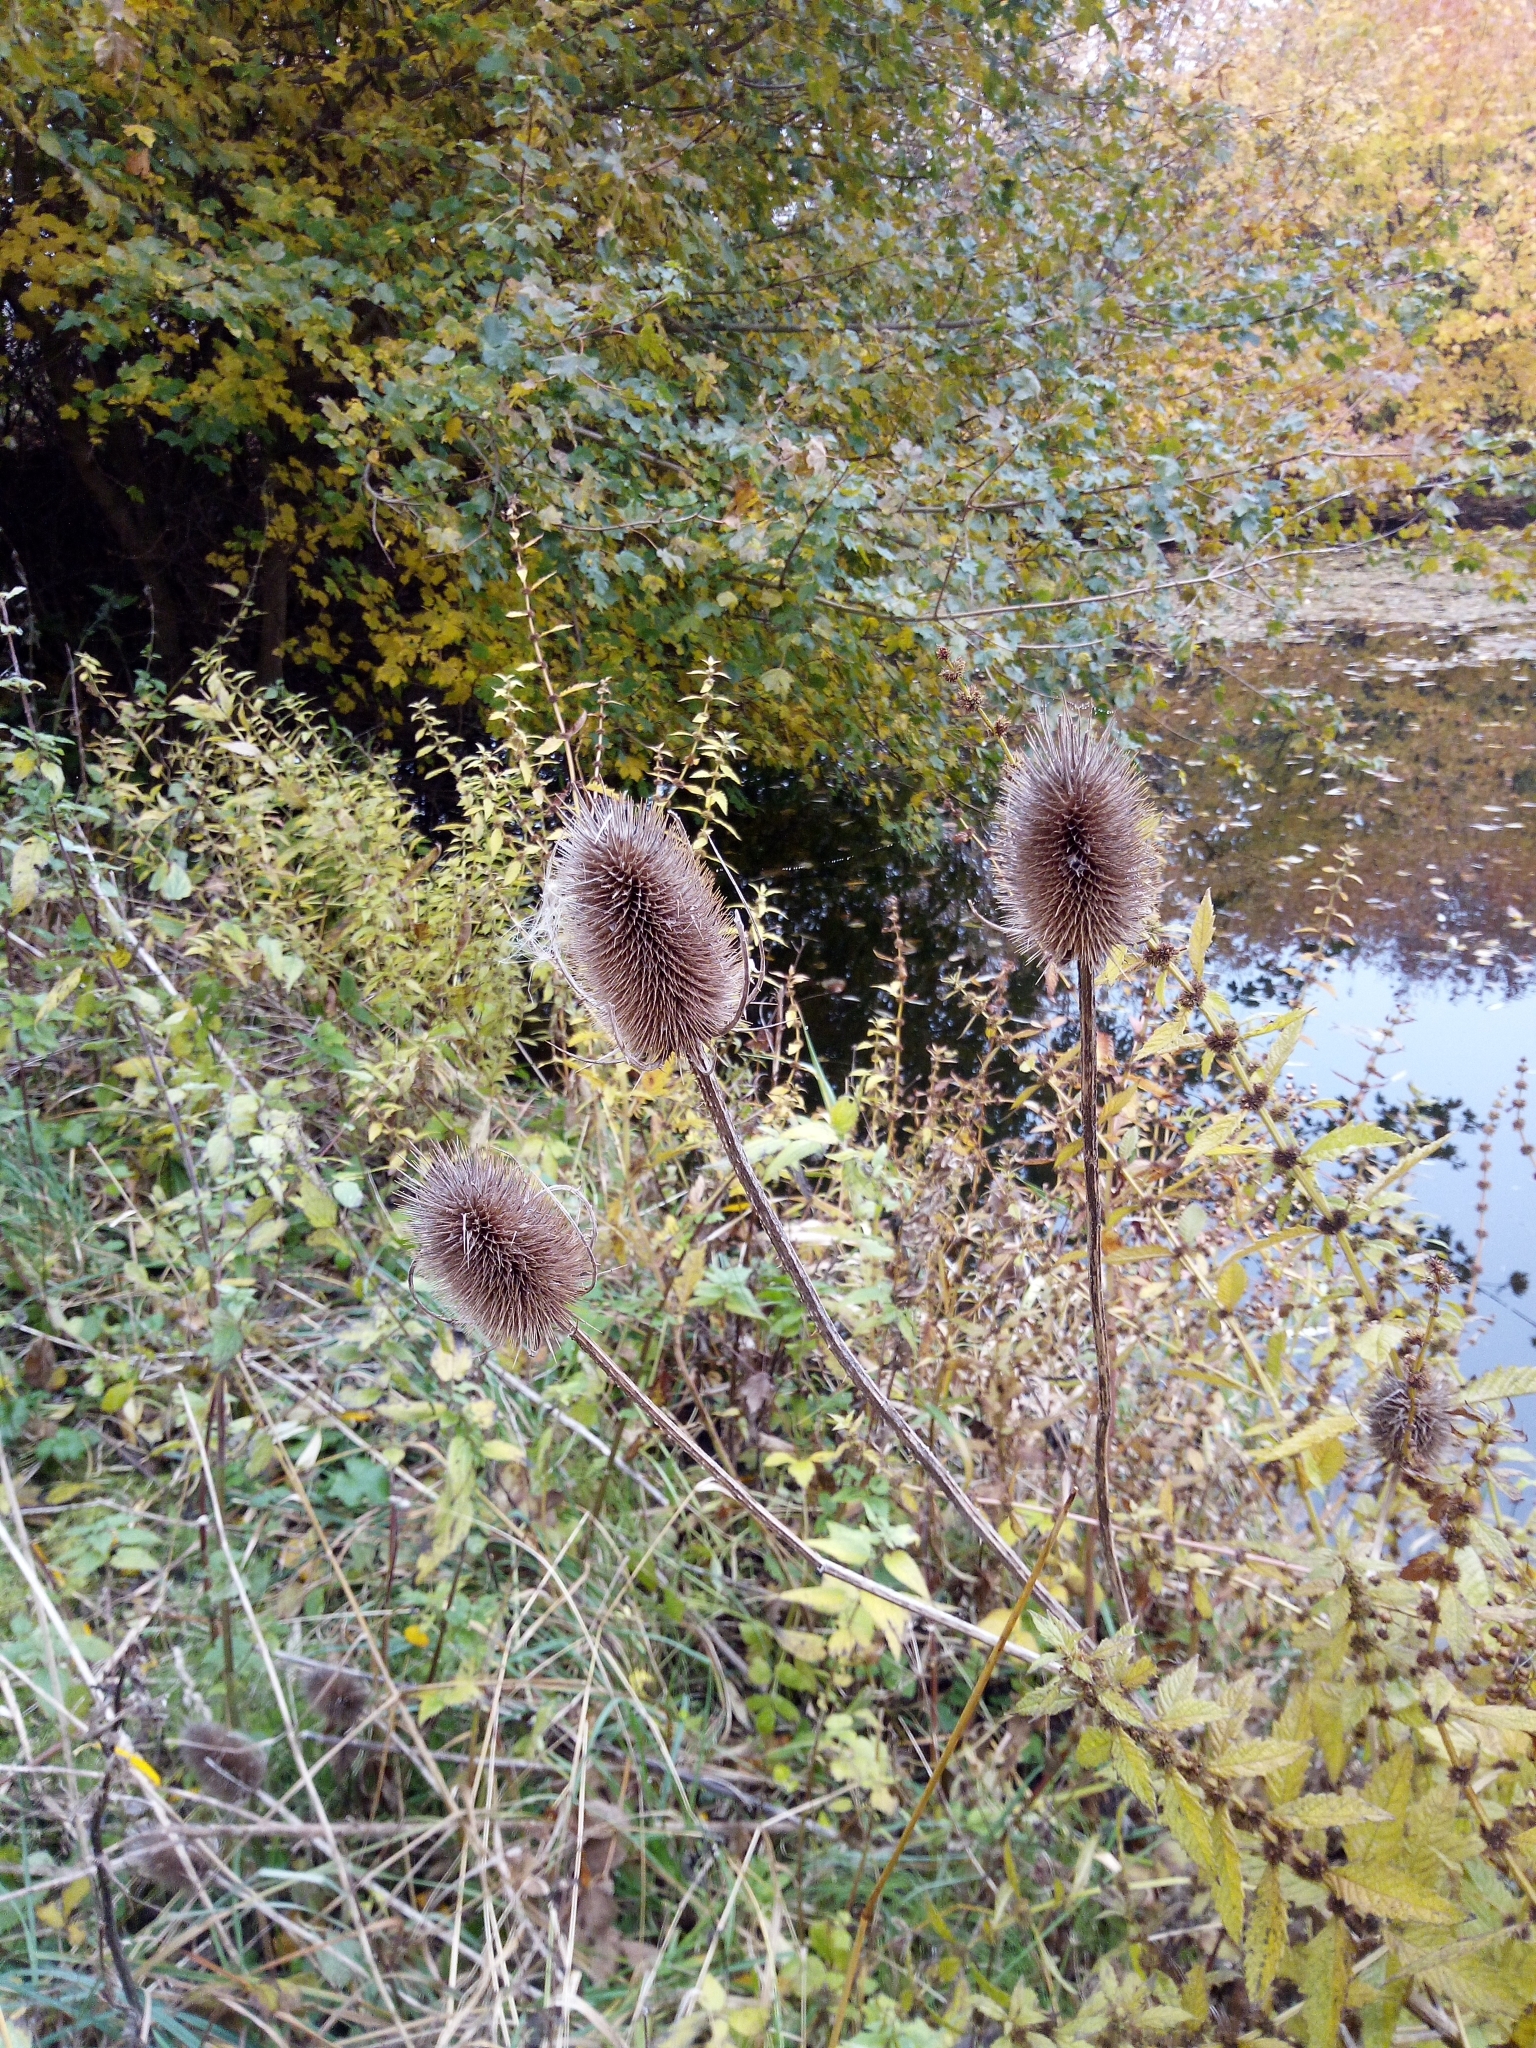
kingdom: Plantae
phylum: Tracheophyta
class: Magnoliopsida
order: Dipsacales
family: Caprifoliaceae
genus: Dipsacus
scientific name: Dipsacus fullonum
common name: Teasel
